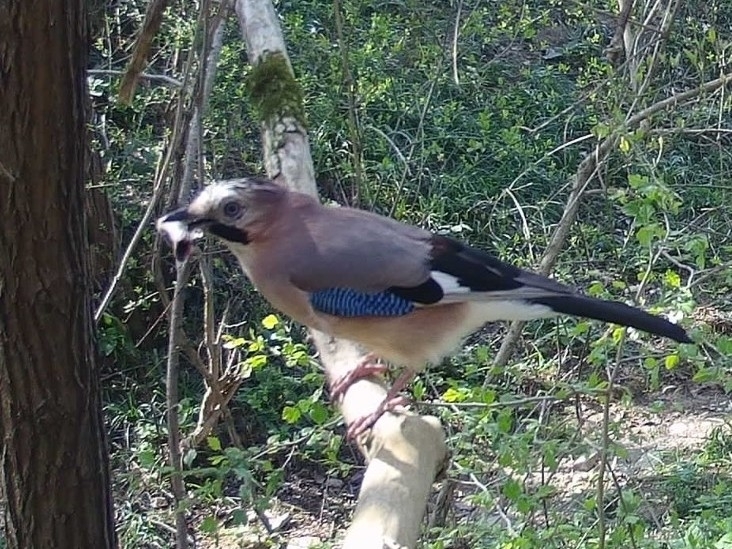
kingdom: Animalia
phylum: Chordata
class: Aves
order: Passeriformes
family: Corvidae
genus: Garrulus
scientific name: Garrulus glandarius
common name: Eurasian jay
